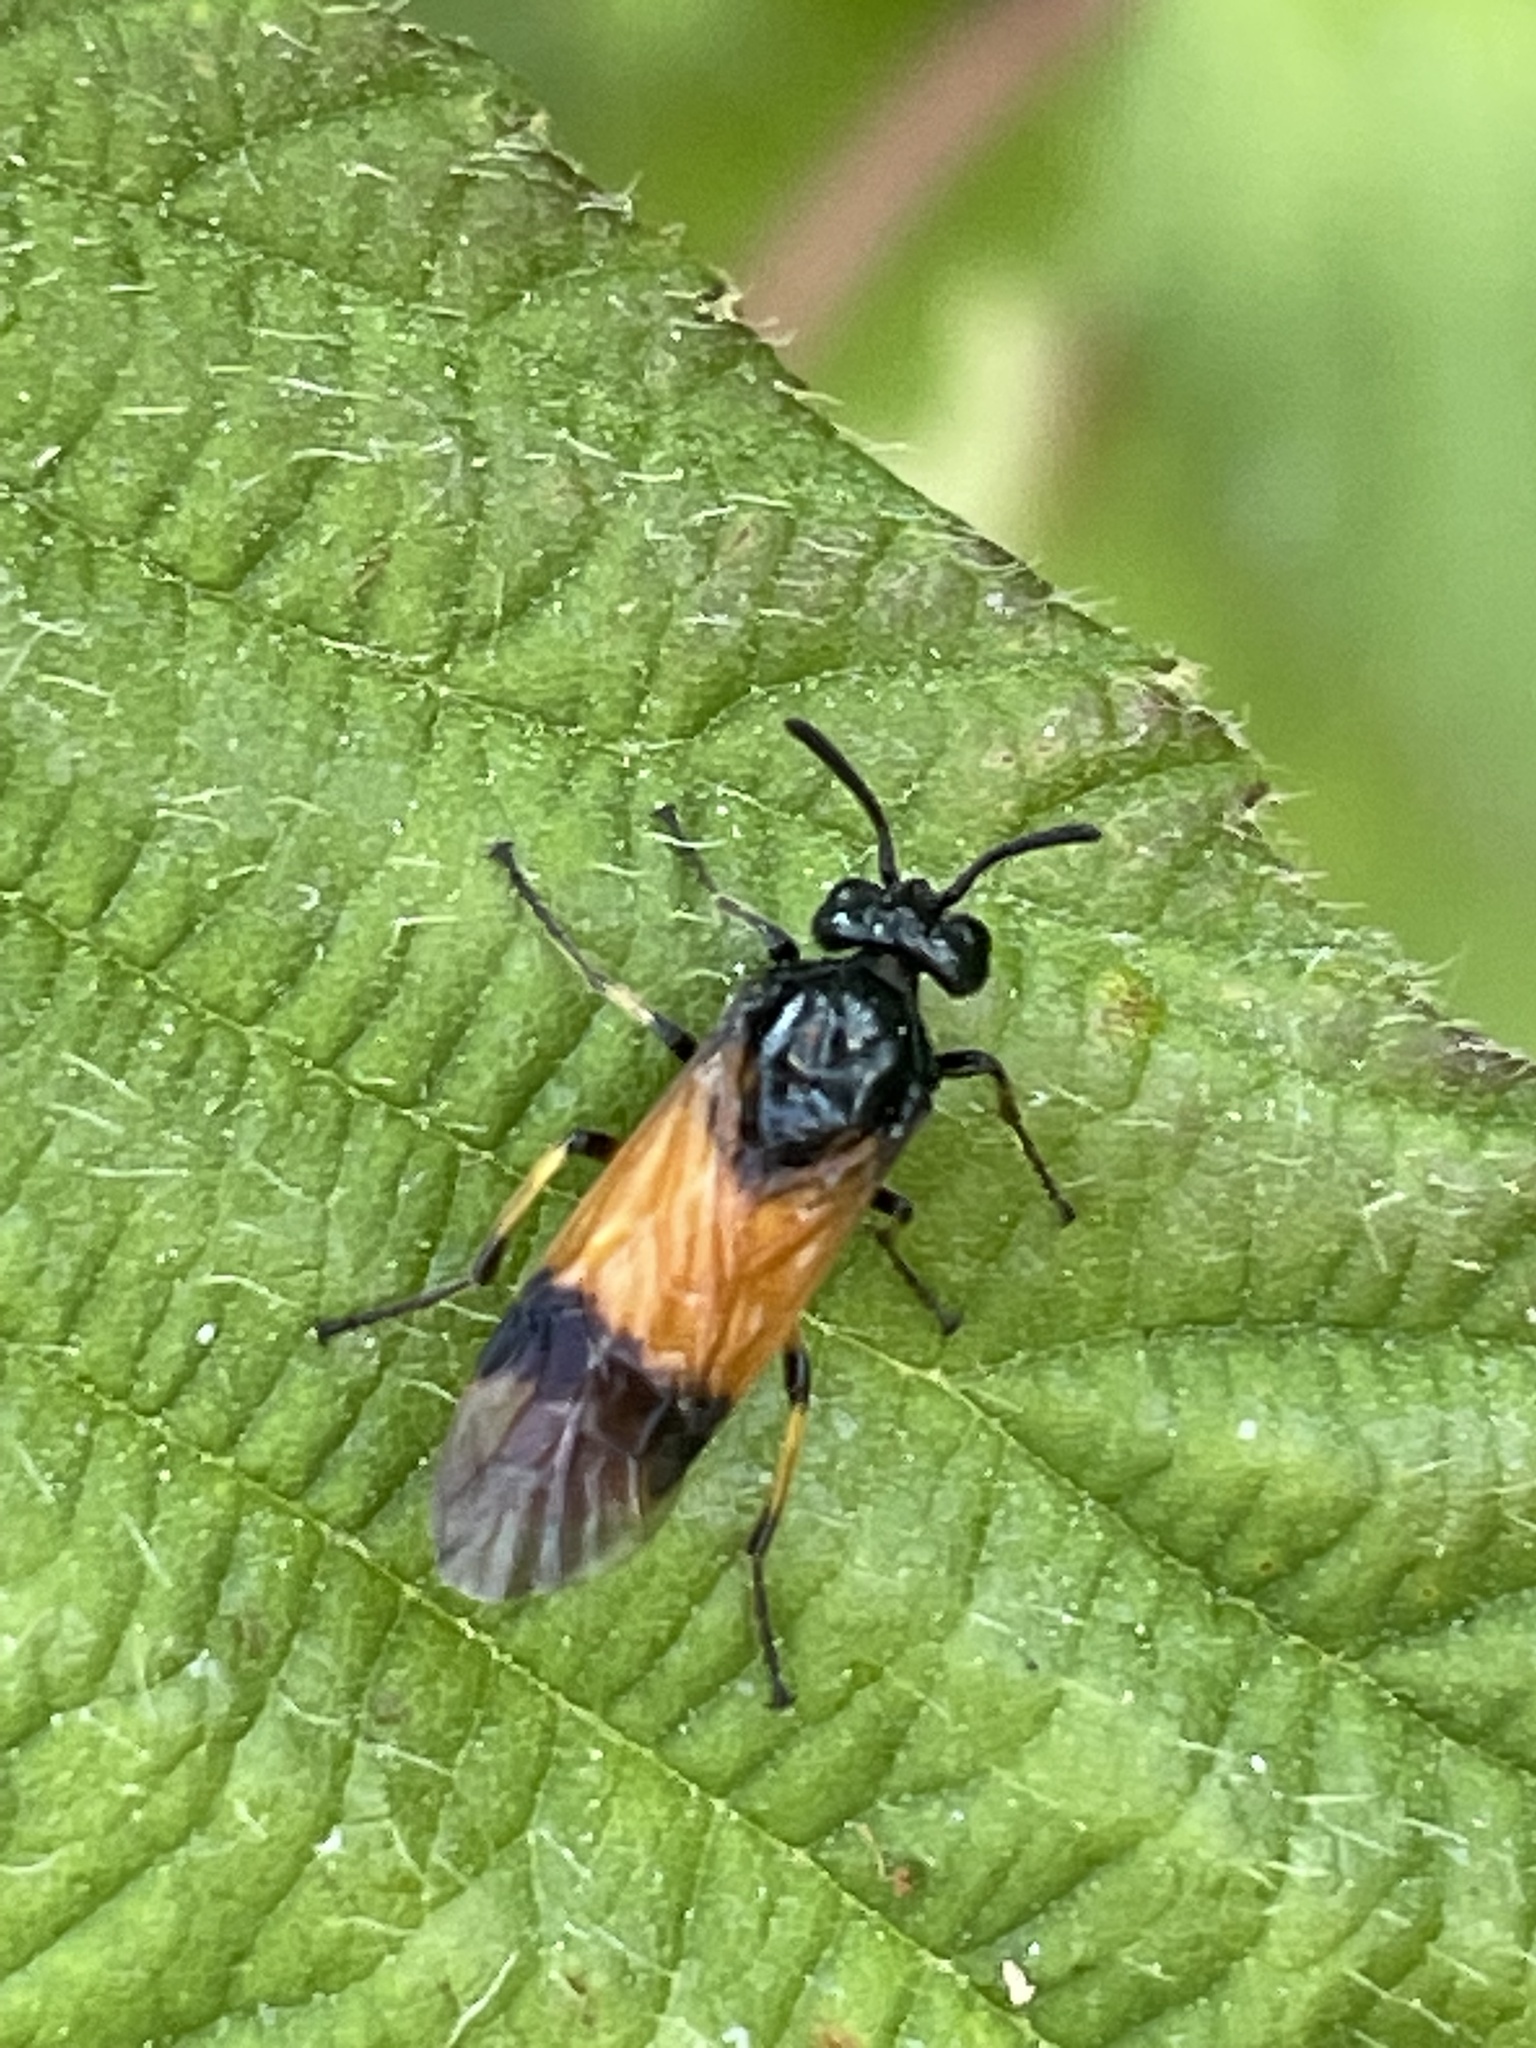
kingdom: Animalia
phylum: Arthropoda
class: Insecta
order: Hymenoptera
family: Argidae
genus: Arge
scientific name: Arge cyanocrocea
